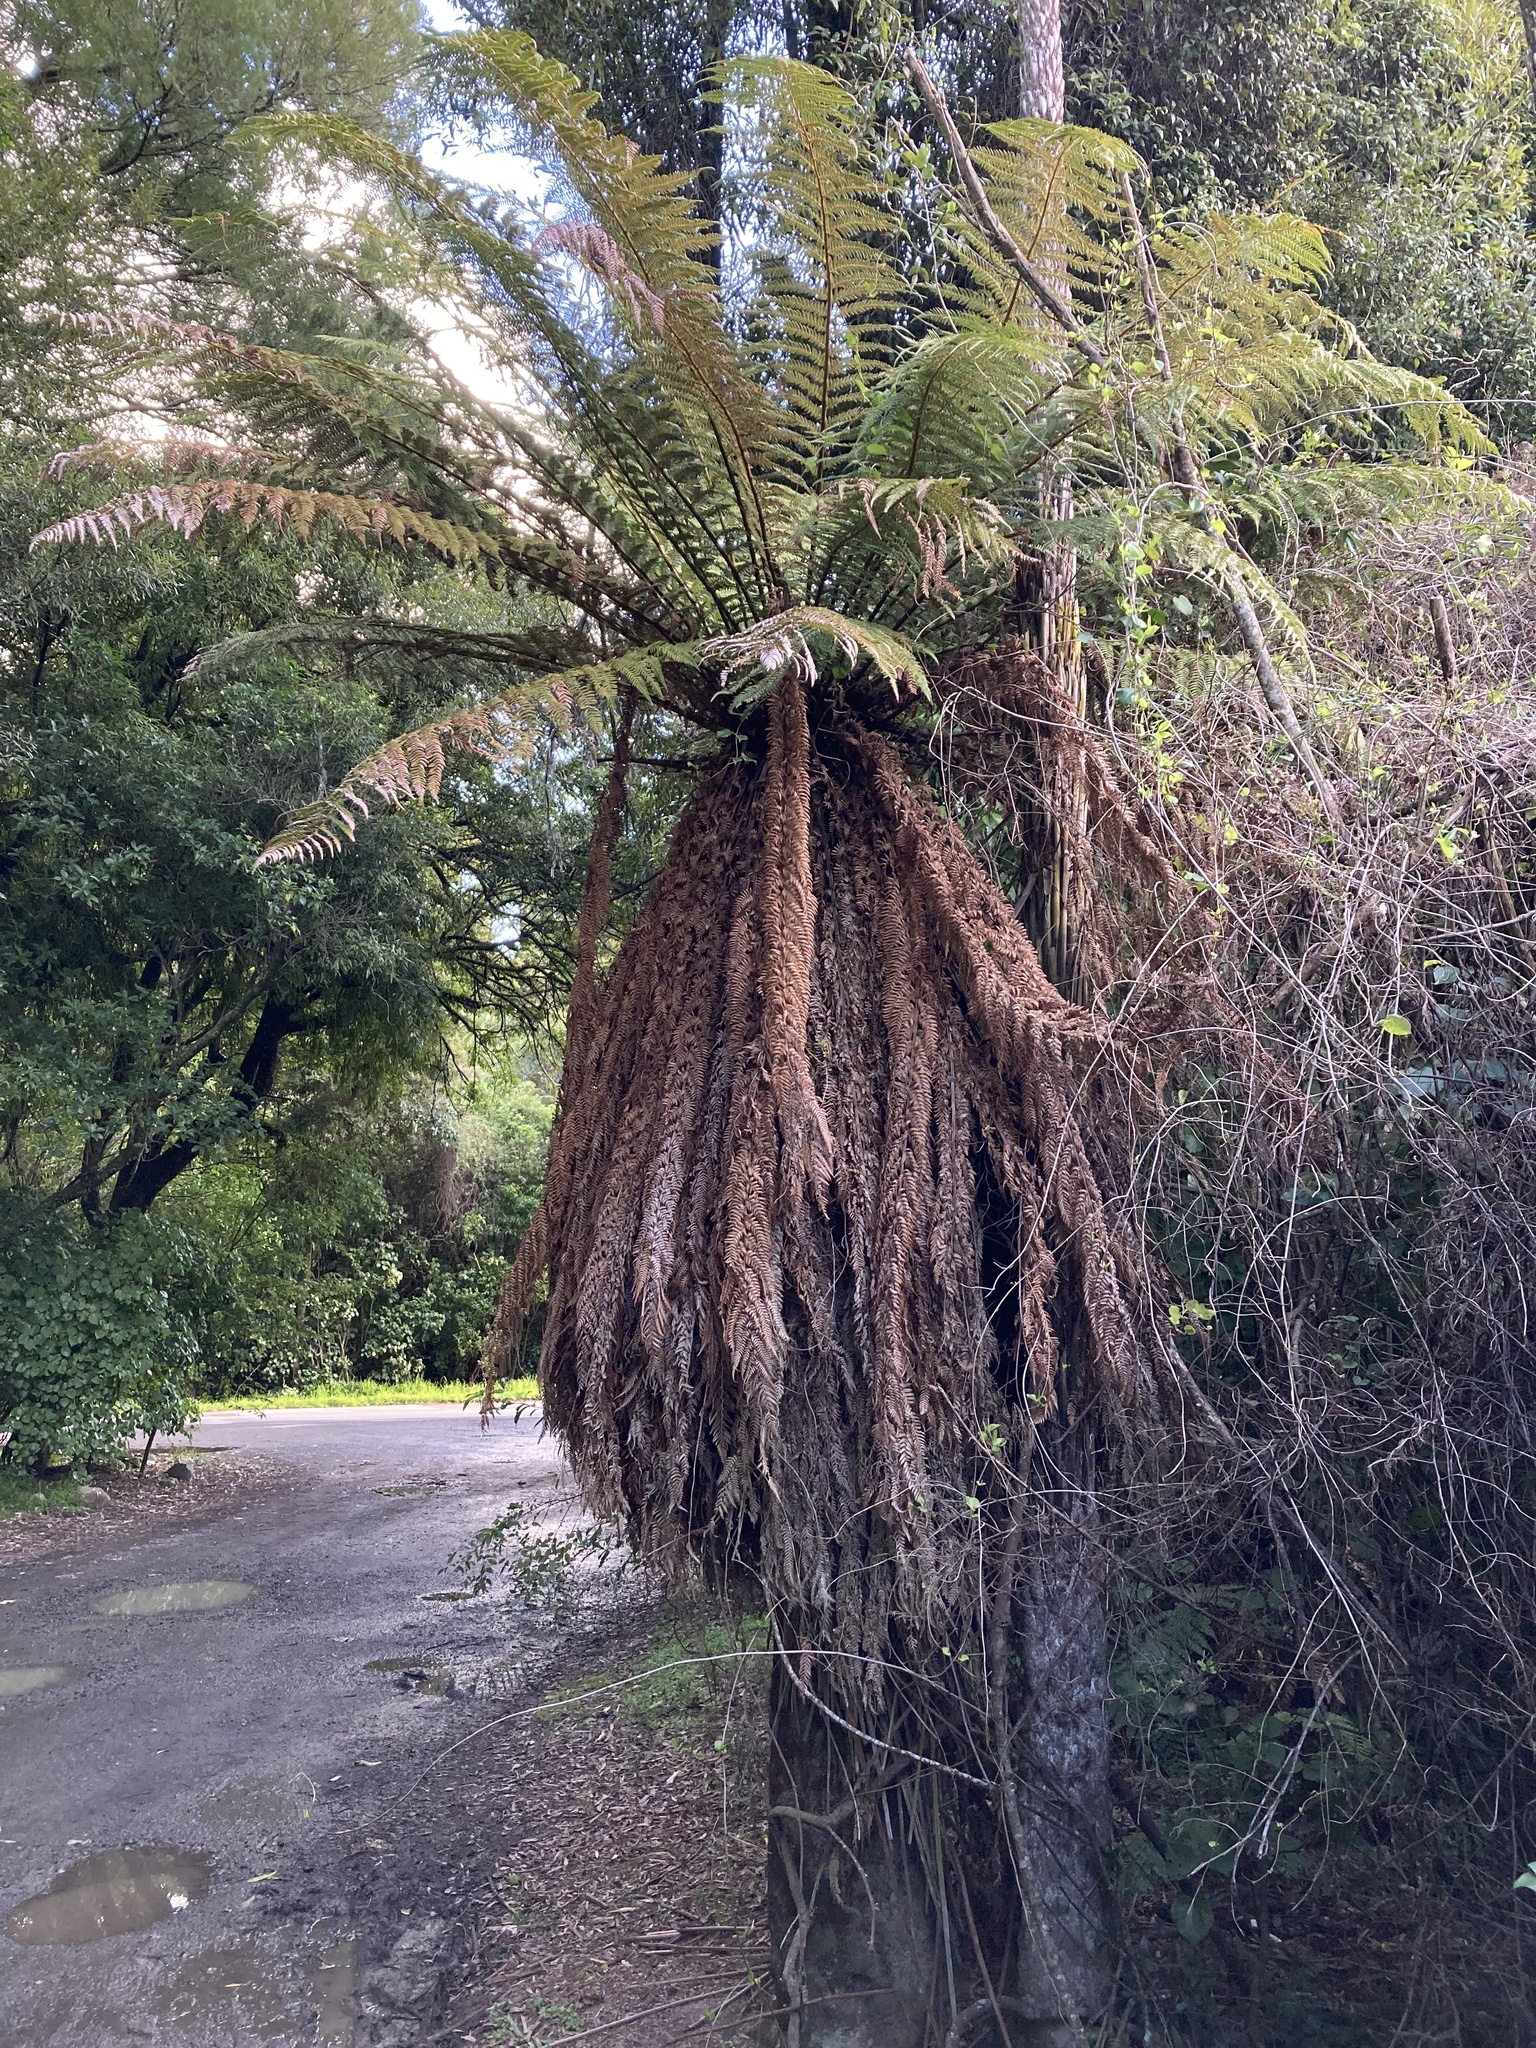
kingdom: Plantae
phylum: Tracheophyta
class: Polypodiopsida
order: Cyatheales
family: Dicksoniaceae
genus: Dicksonia
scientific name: Dicksonia fibrosa
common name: Golden tree fern
